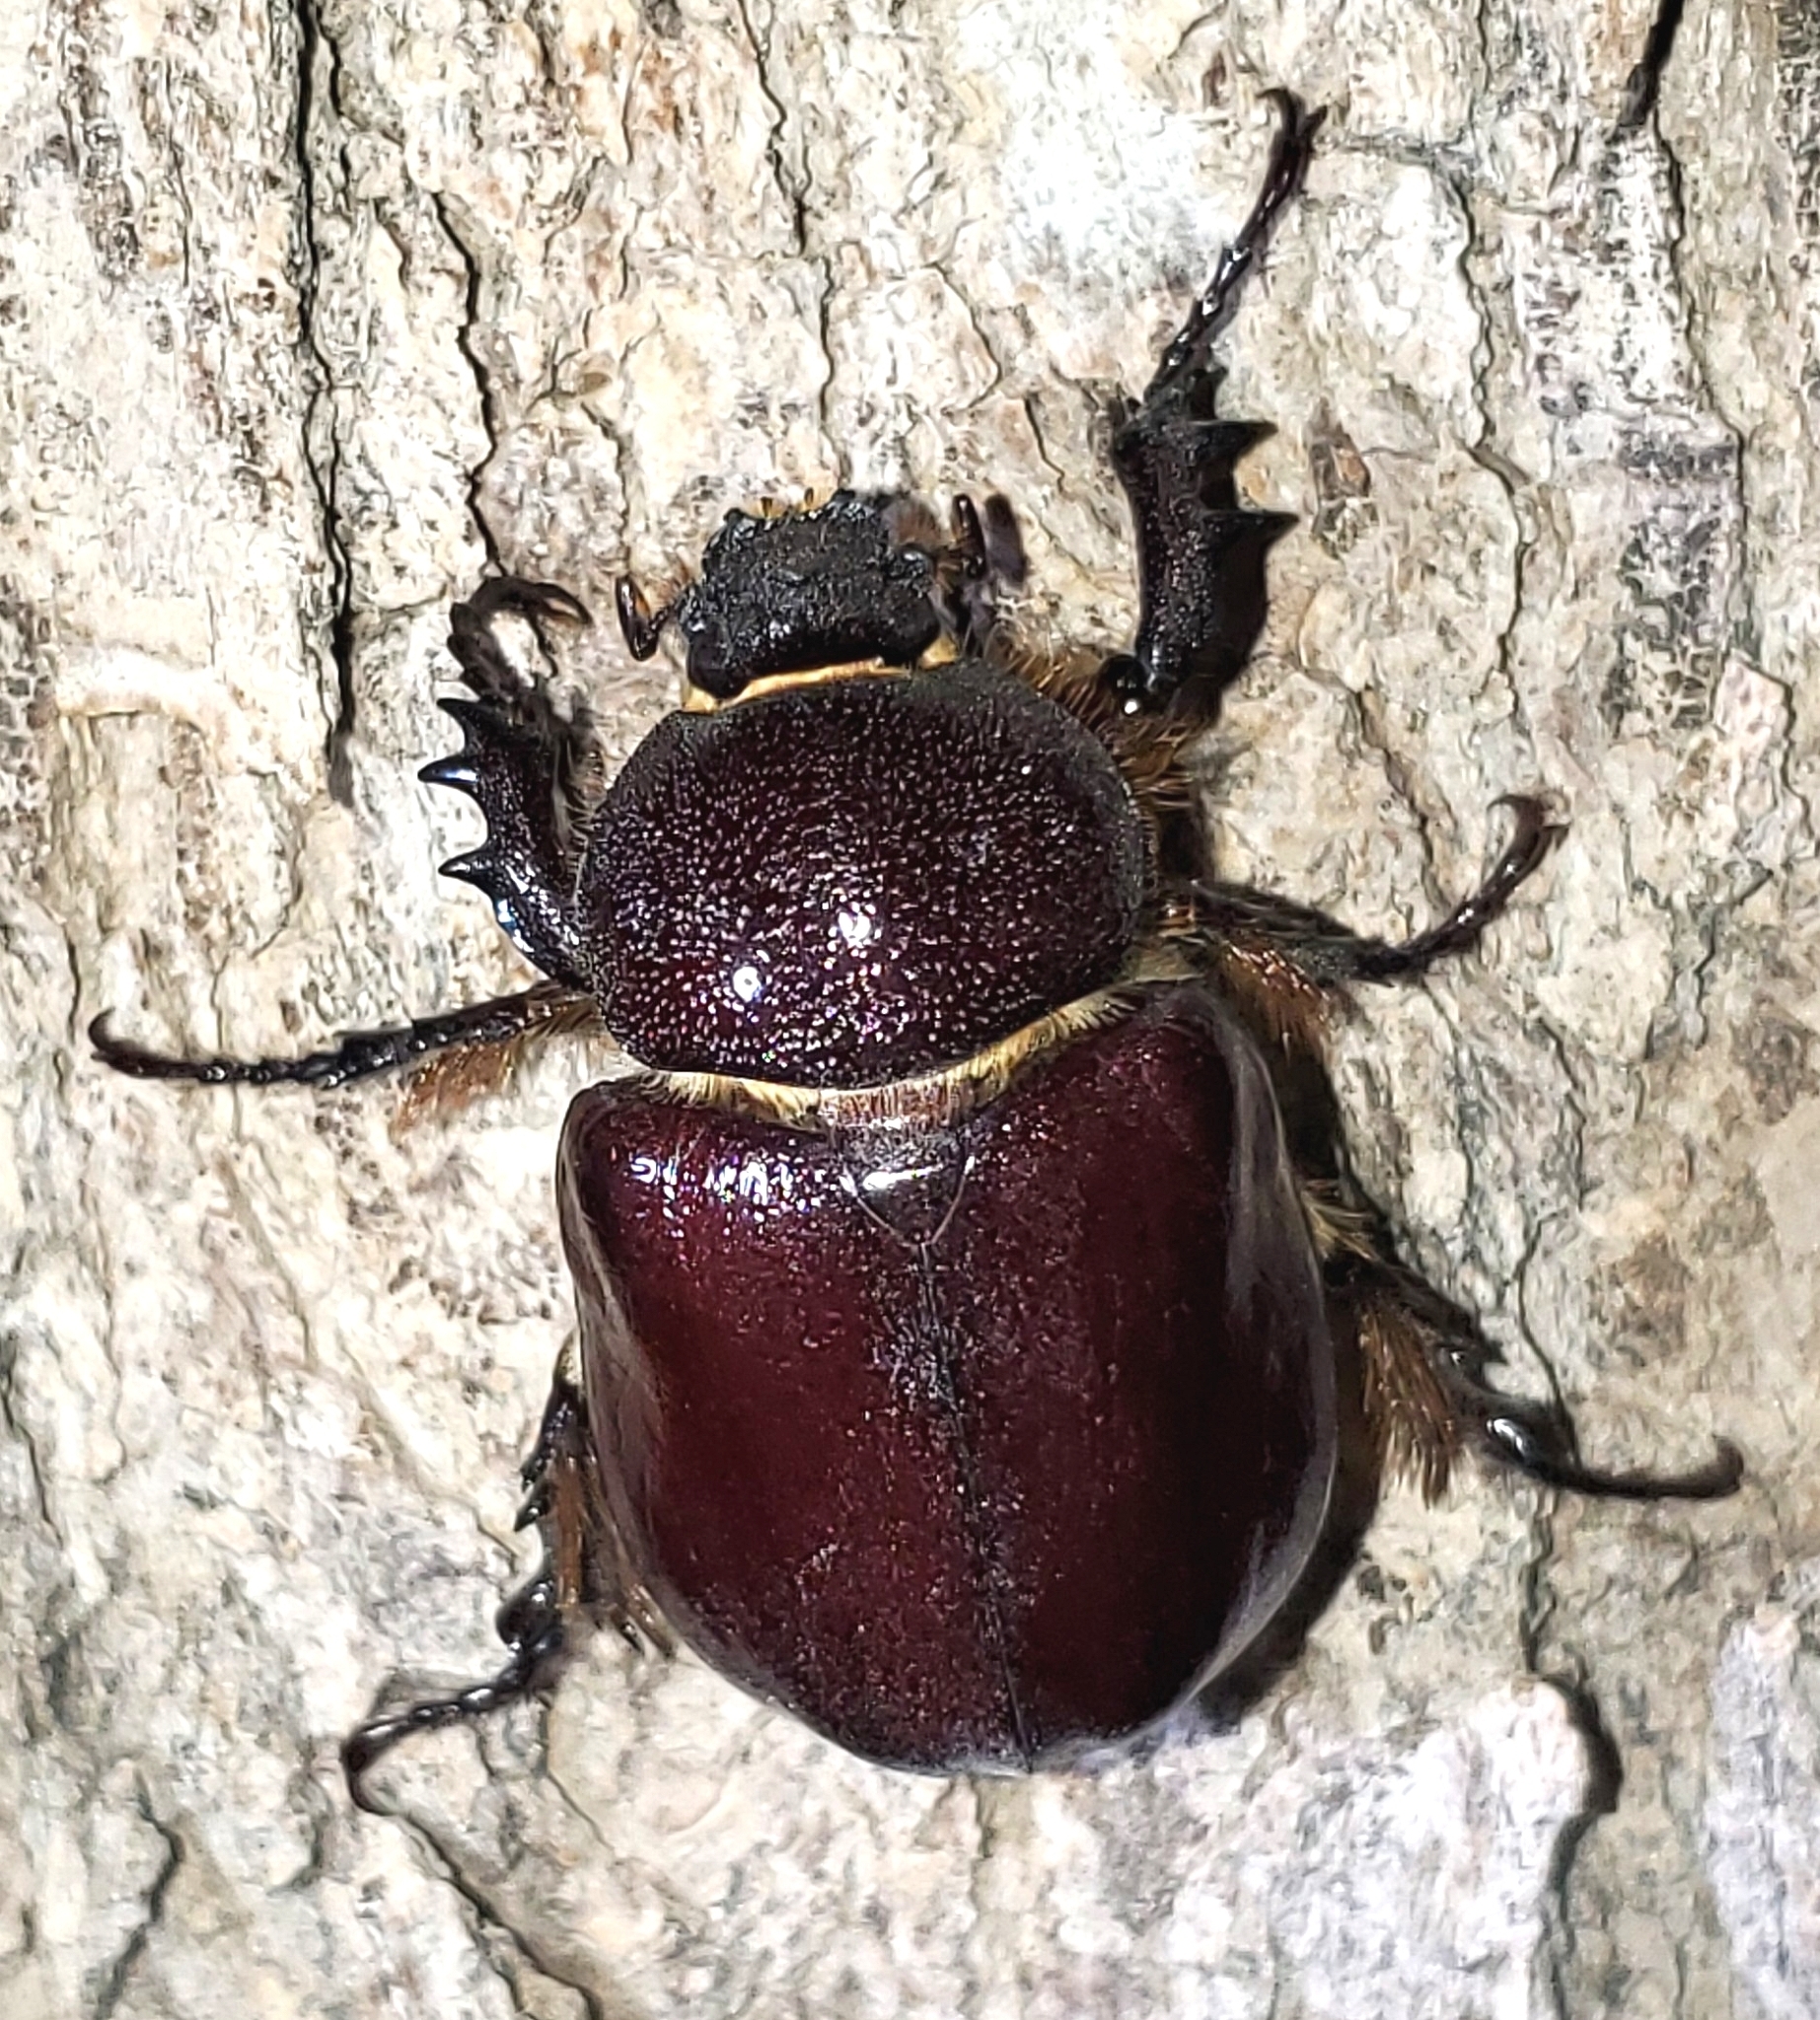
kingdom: Animalia
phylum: Arthropoda
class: Insecta
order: Coleoptera
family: Scarabaeidae
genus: Megasoma
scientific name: Megasoma sleeperi
